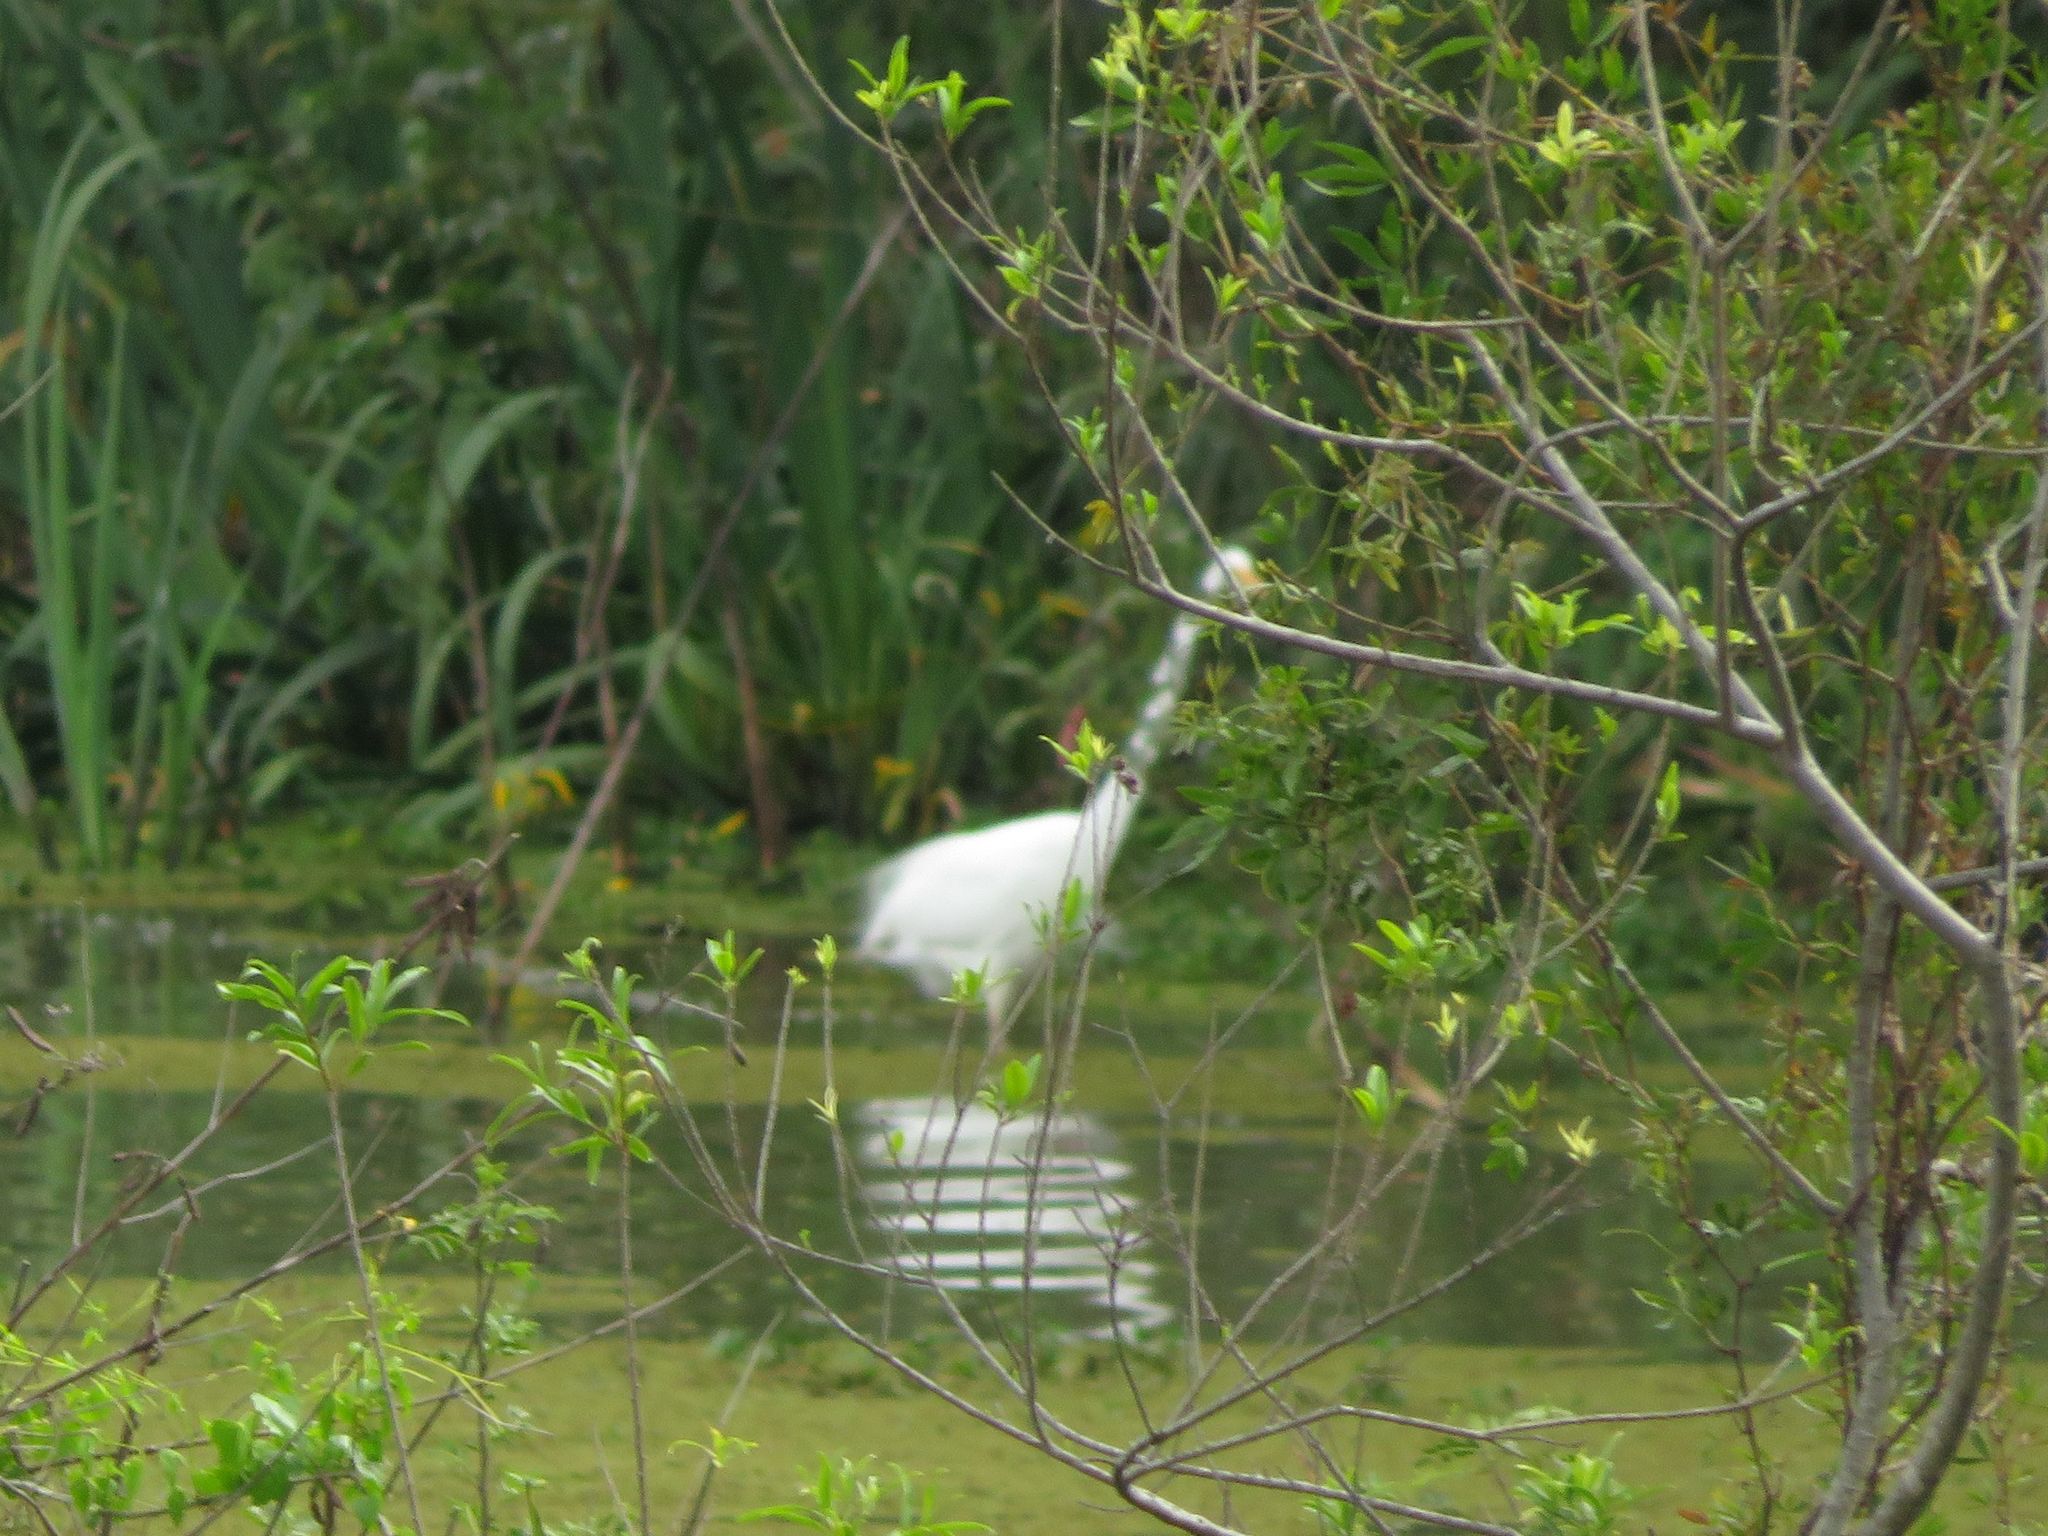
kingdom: Animalia
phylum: Chordata
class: Aves
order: Pelecaniformes
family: Ardeidae
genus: Ardea
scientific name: Ardea alba
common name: Great egret
